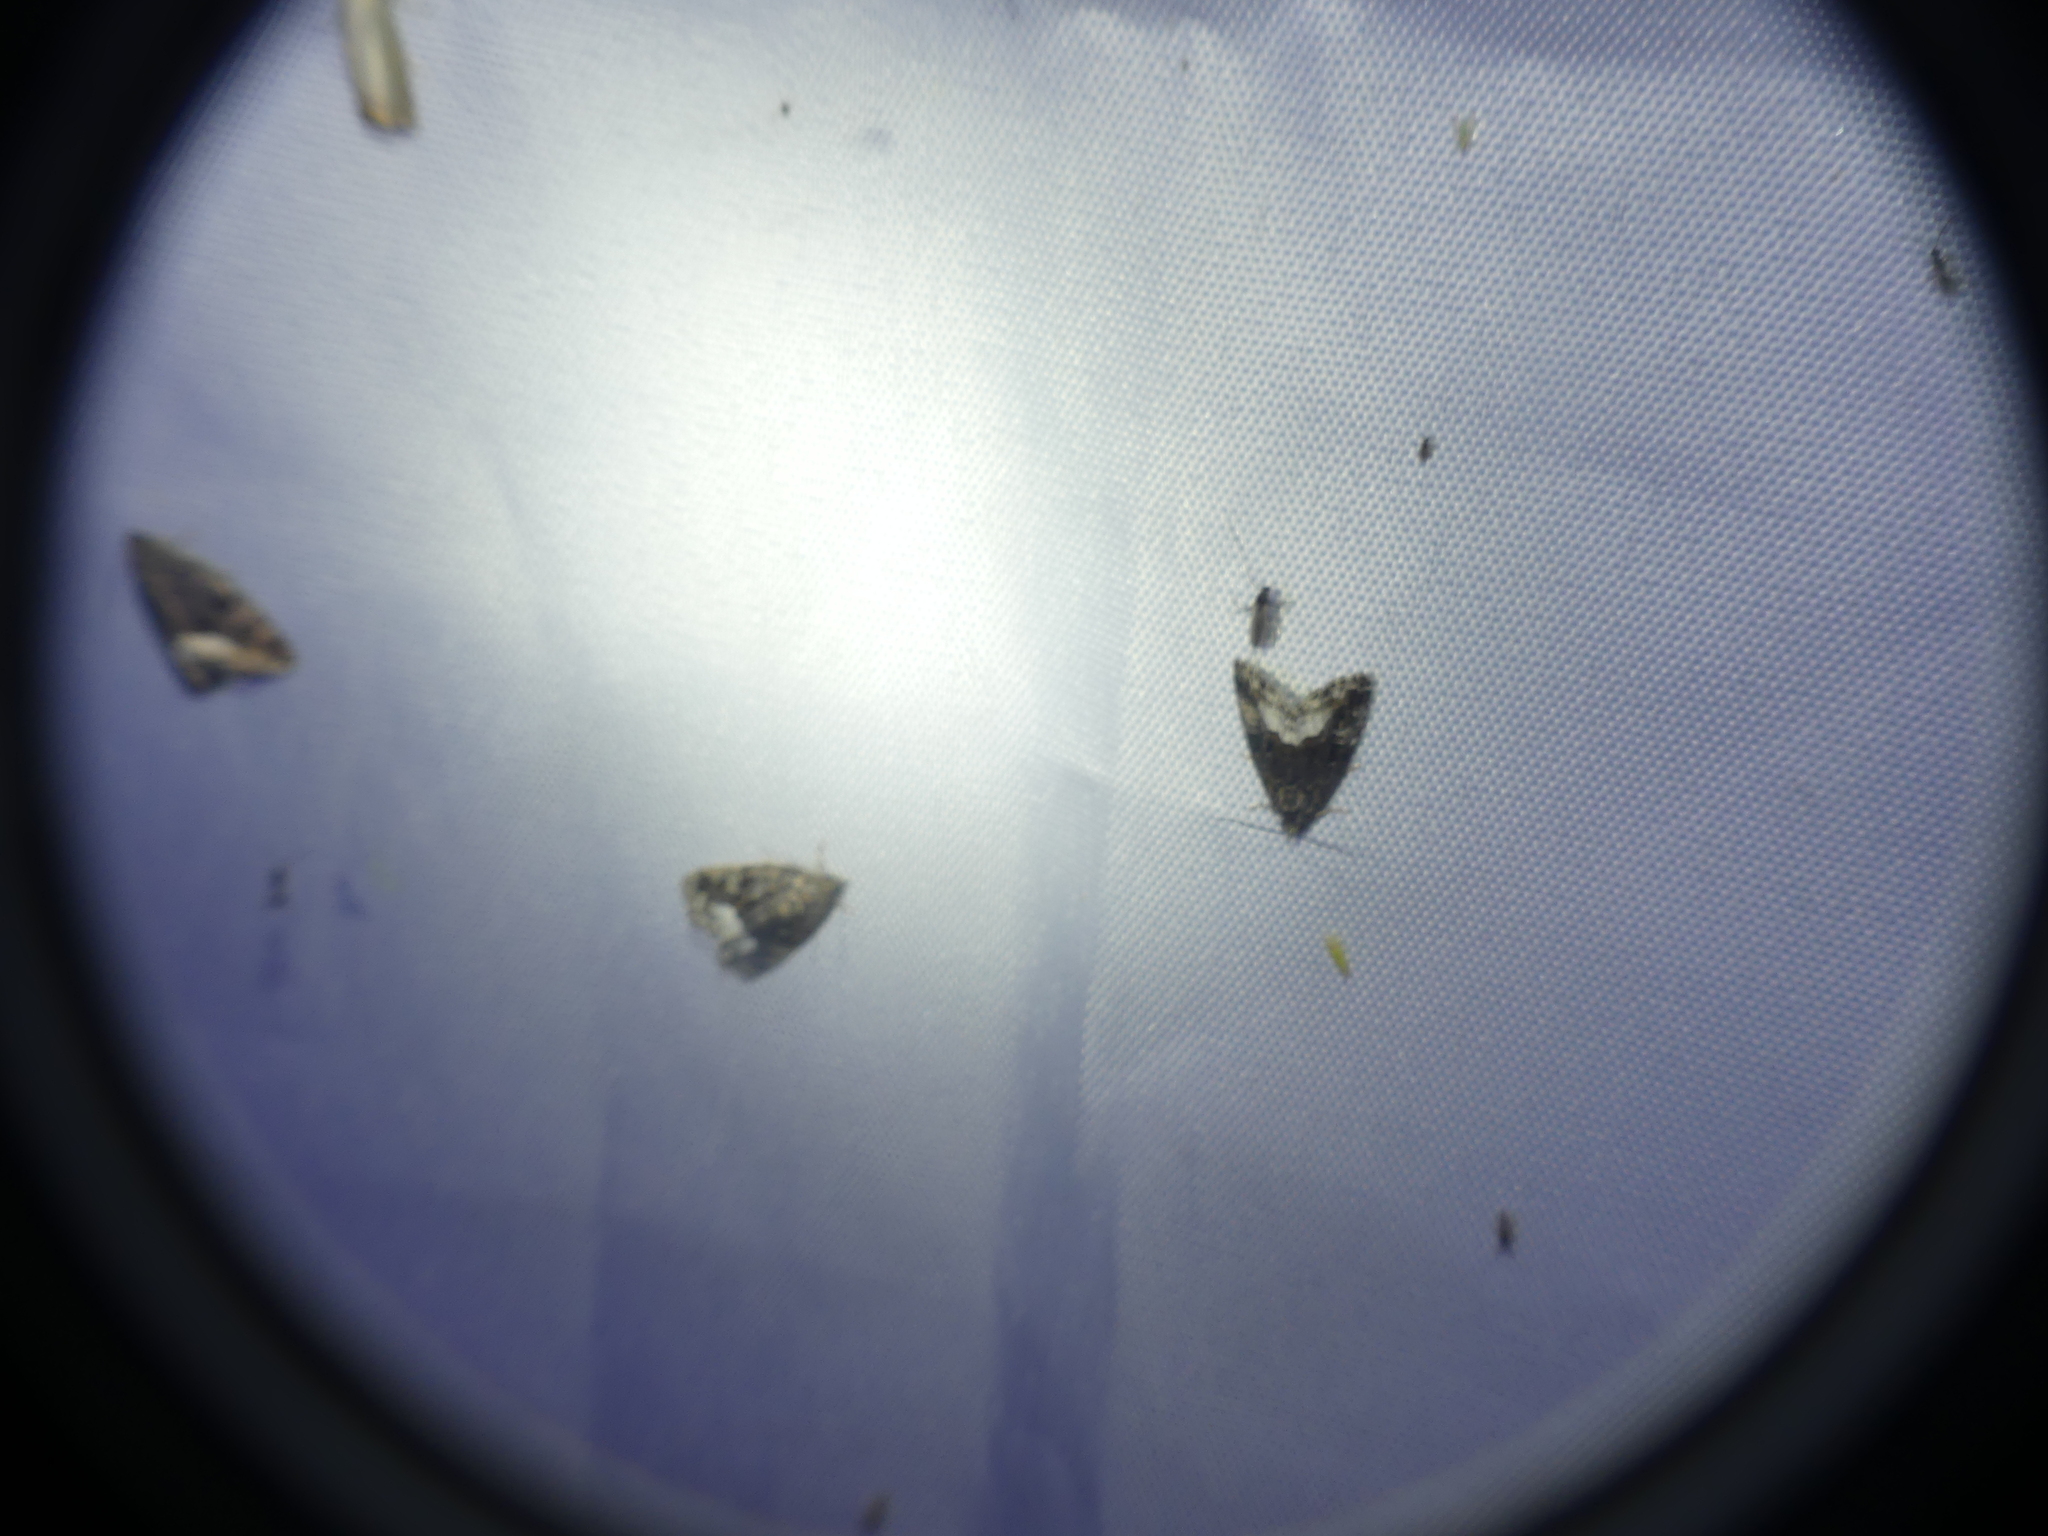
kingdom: Animalia
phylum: Arthropoda
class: Insecta
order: Lepidoptera
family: Noctuidae
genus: Deltote
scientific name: Deltote pygarga
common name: Marbled white spot
